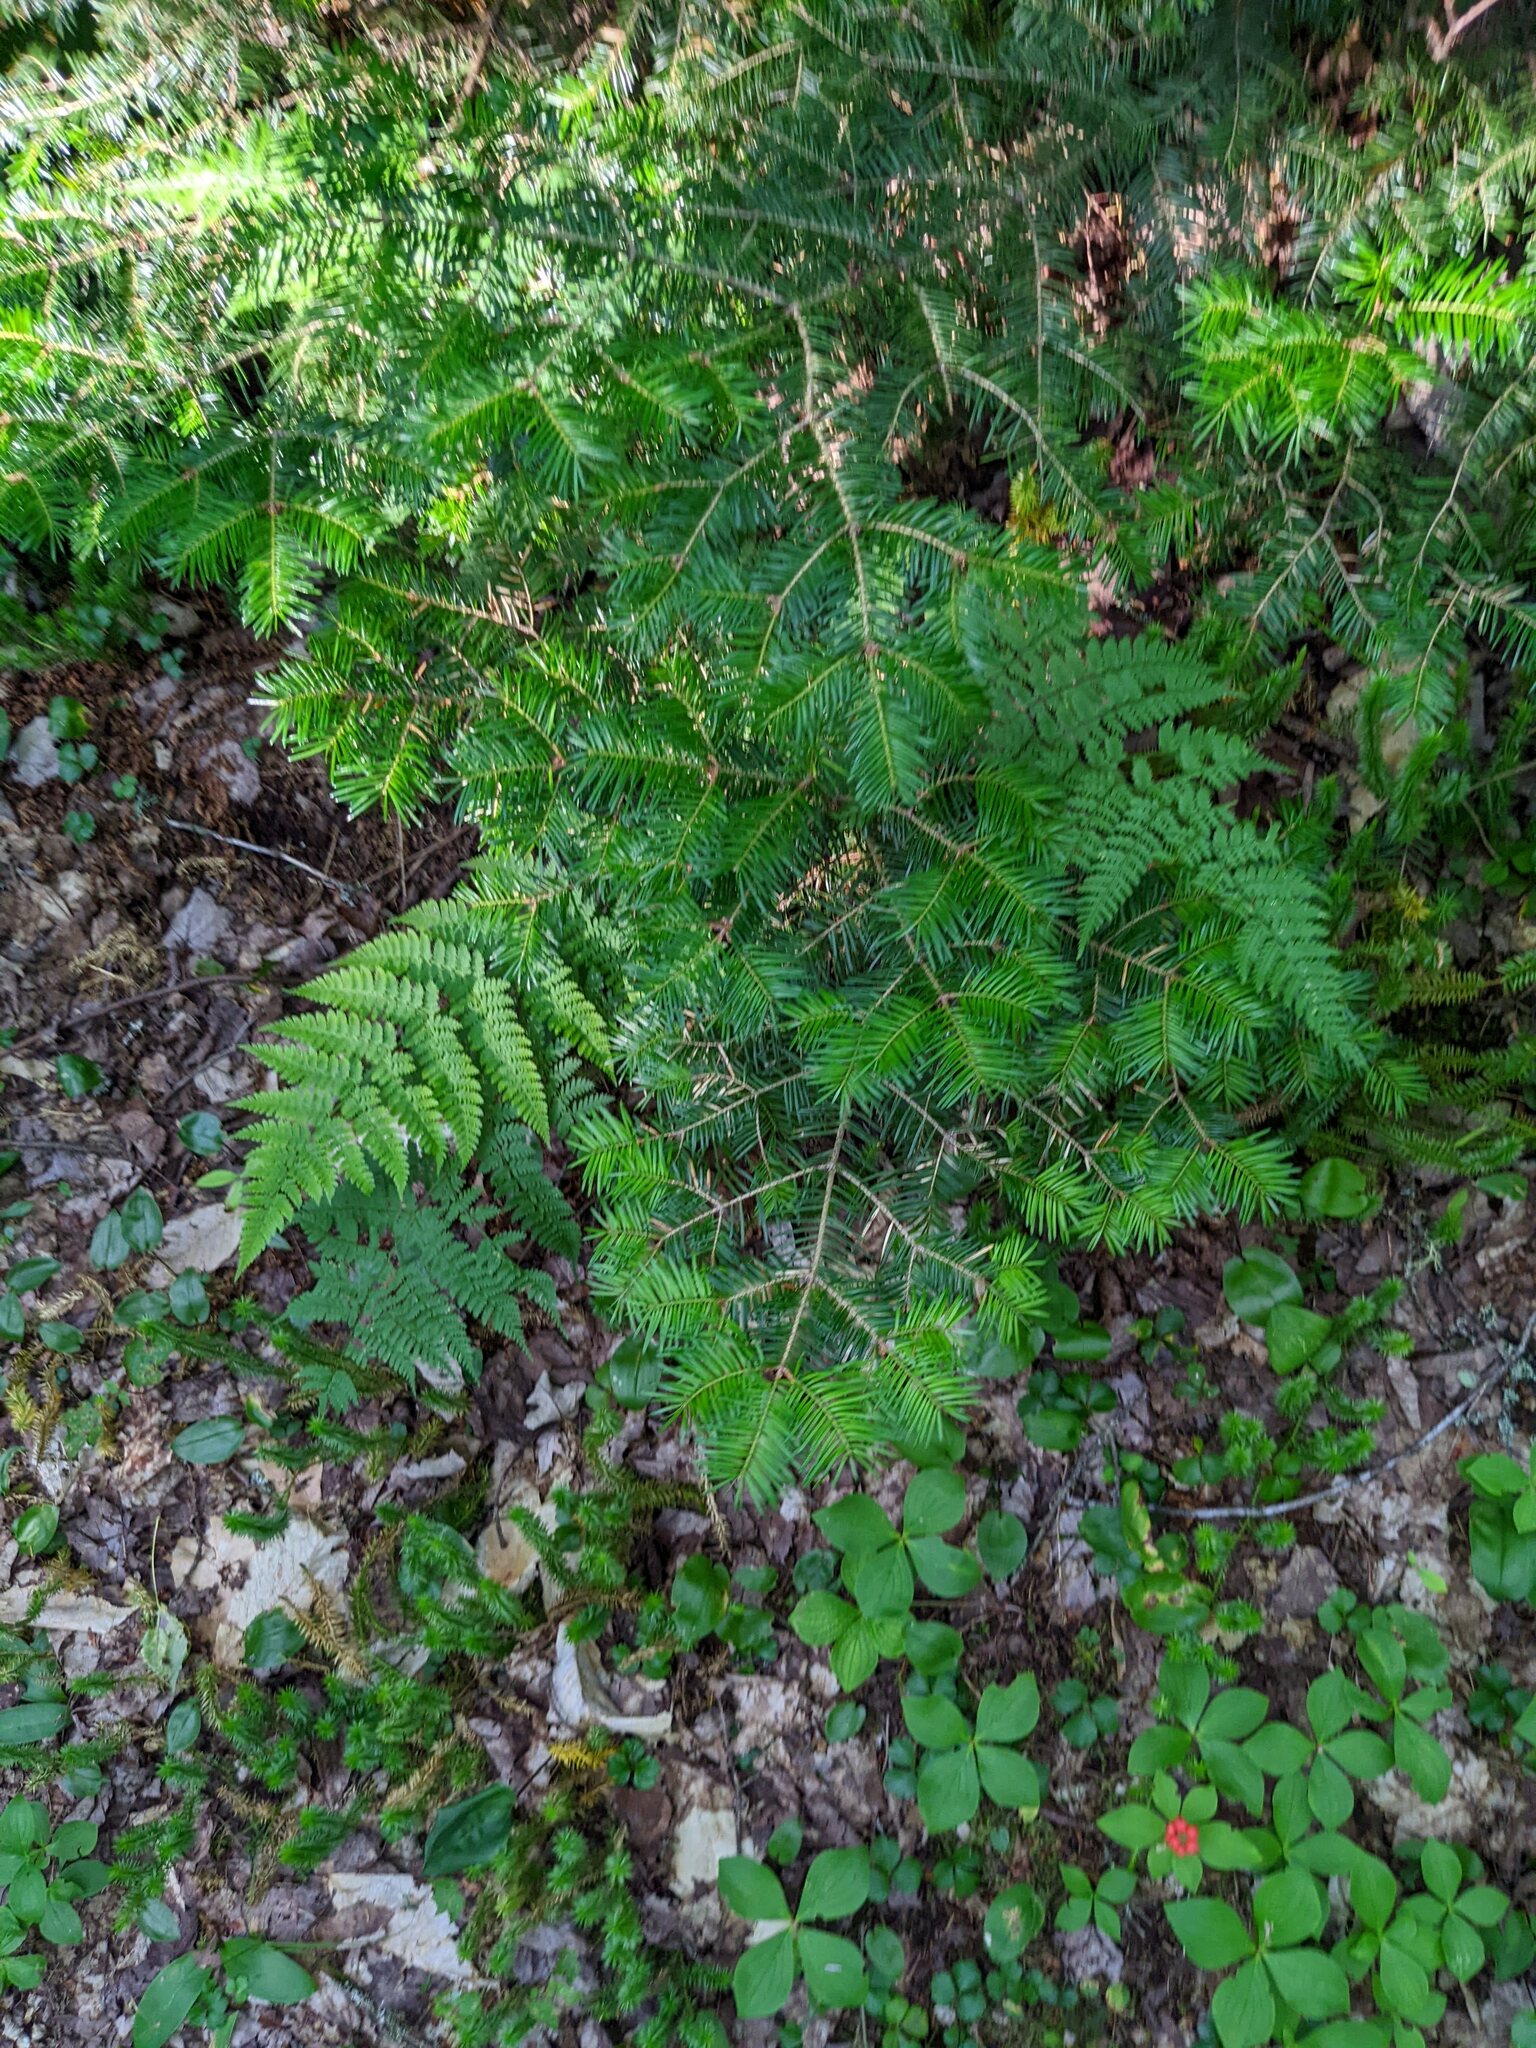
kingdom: Plantae
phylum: Tracheophyta
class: Pinopsida
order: Pinales
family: Pinaceae
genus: Abies
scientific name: Abies balsamea
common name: Balsam fir
